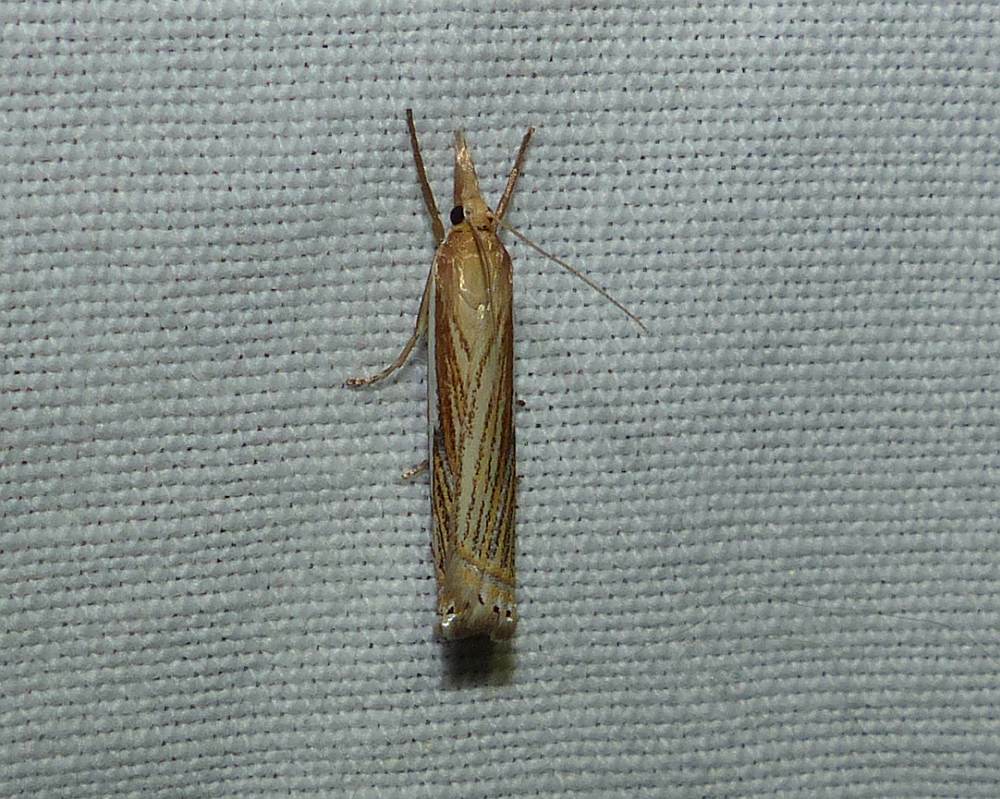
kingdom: Animalia
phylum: Arthropoda
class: Insecta
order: Lepidoptera
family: Crambidae
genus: Crambus
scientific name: Crambus saltuellus
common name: Pasture grass-veneer
